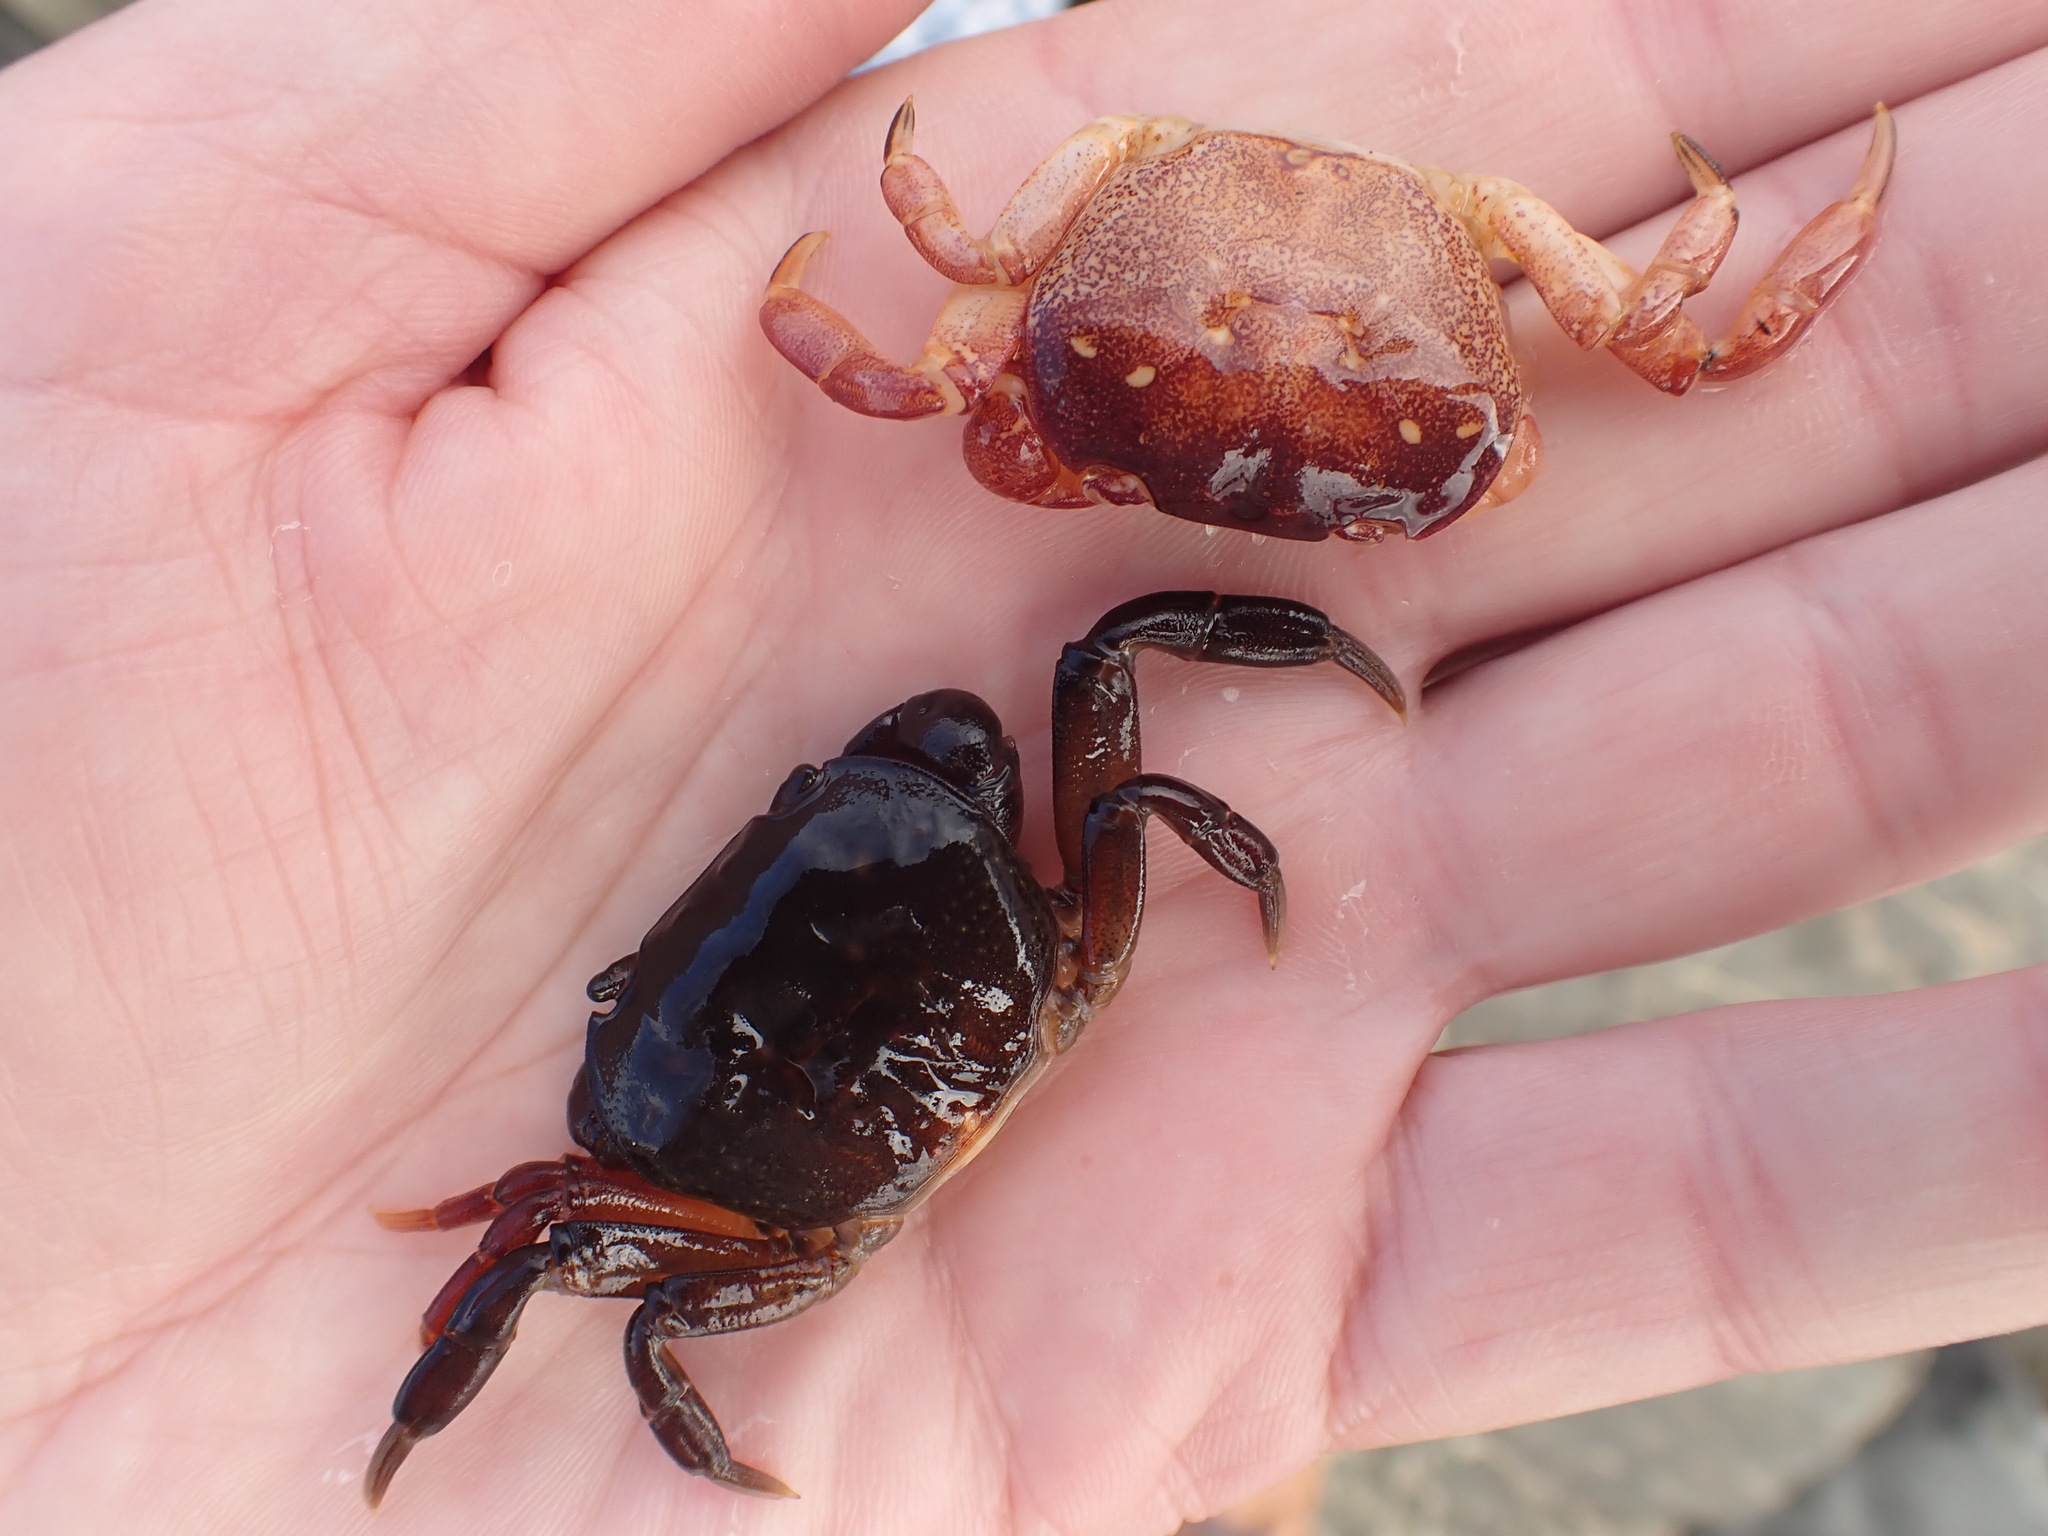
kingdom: Animalia
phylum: Arthropoda
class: Malacostraca
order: Decapoda
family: Varunidae
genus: Cyclograpsus
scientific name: Cyclograpsus lavauxi
